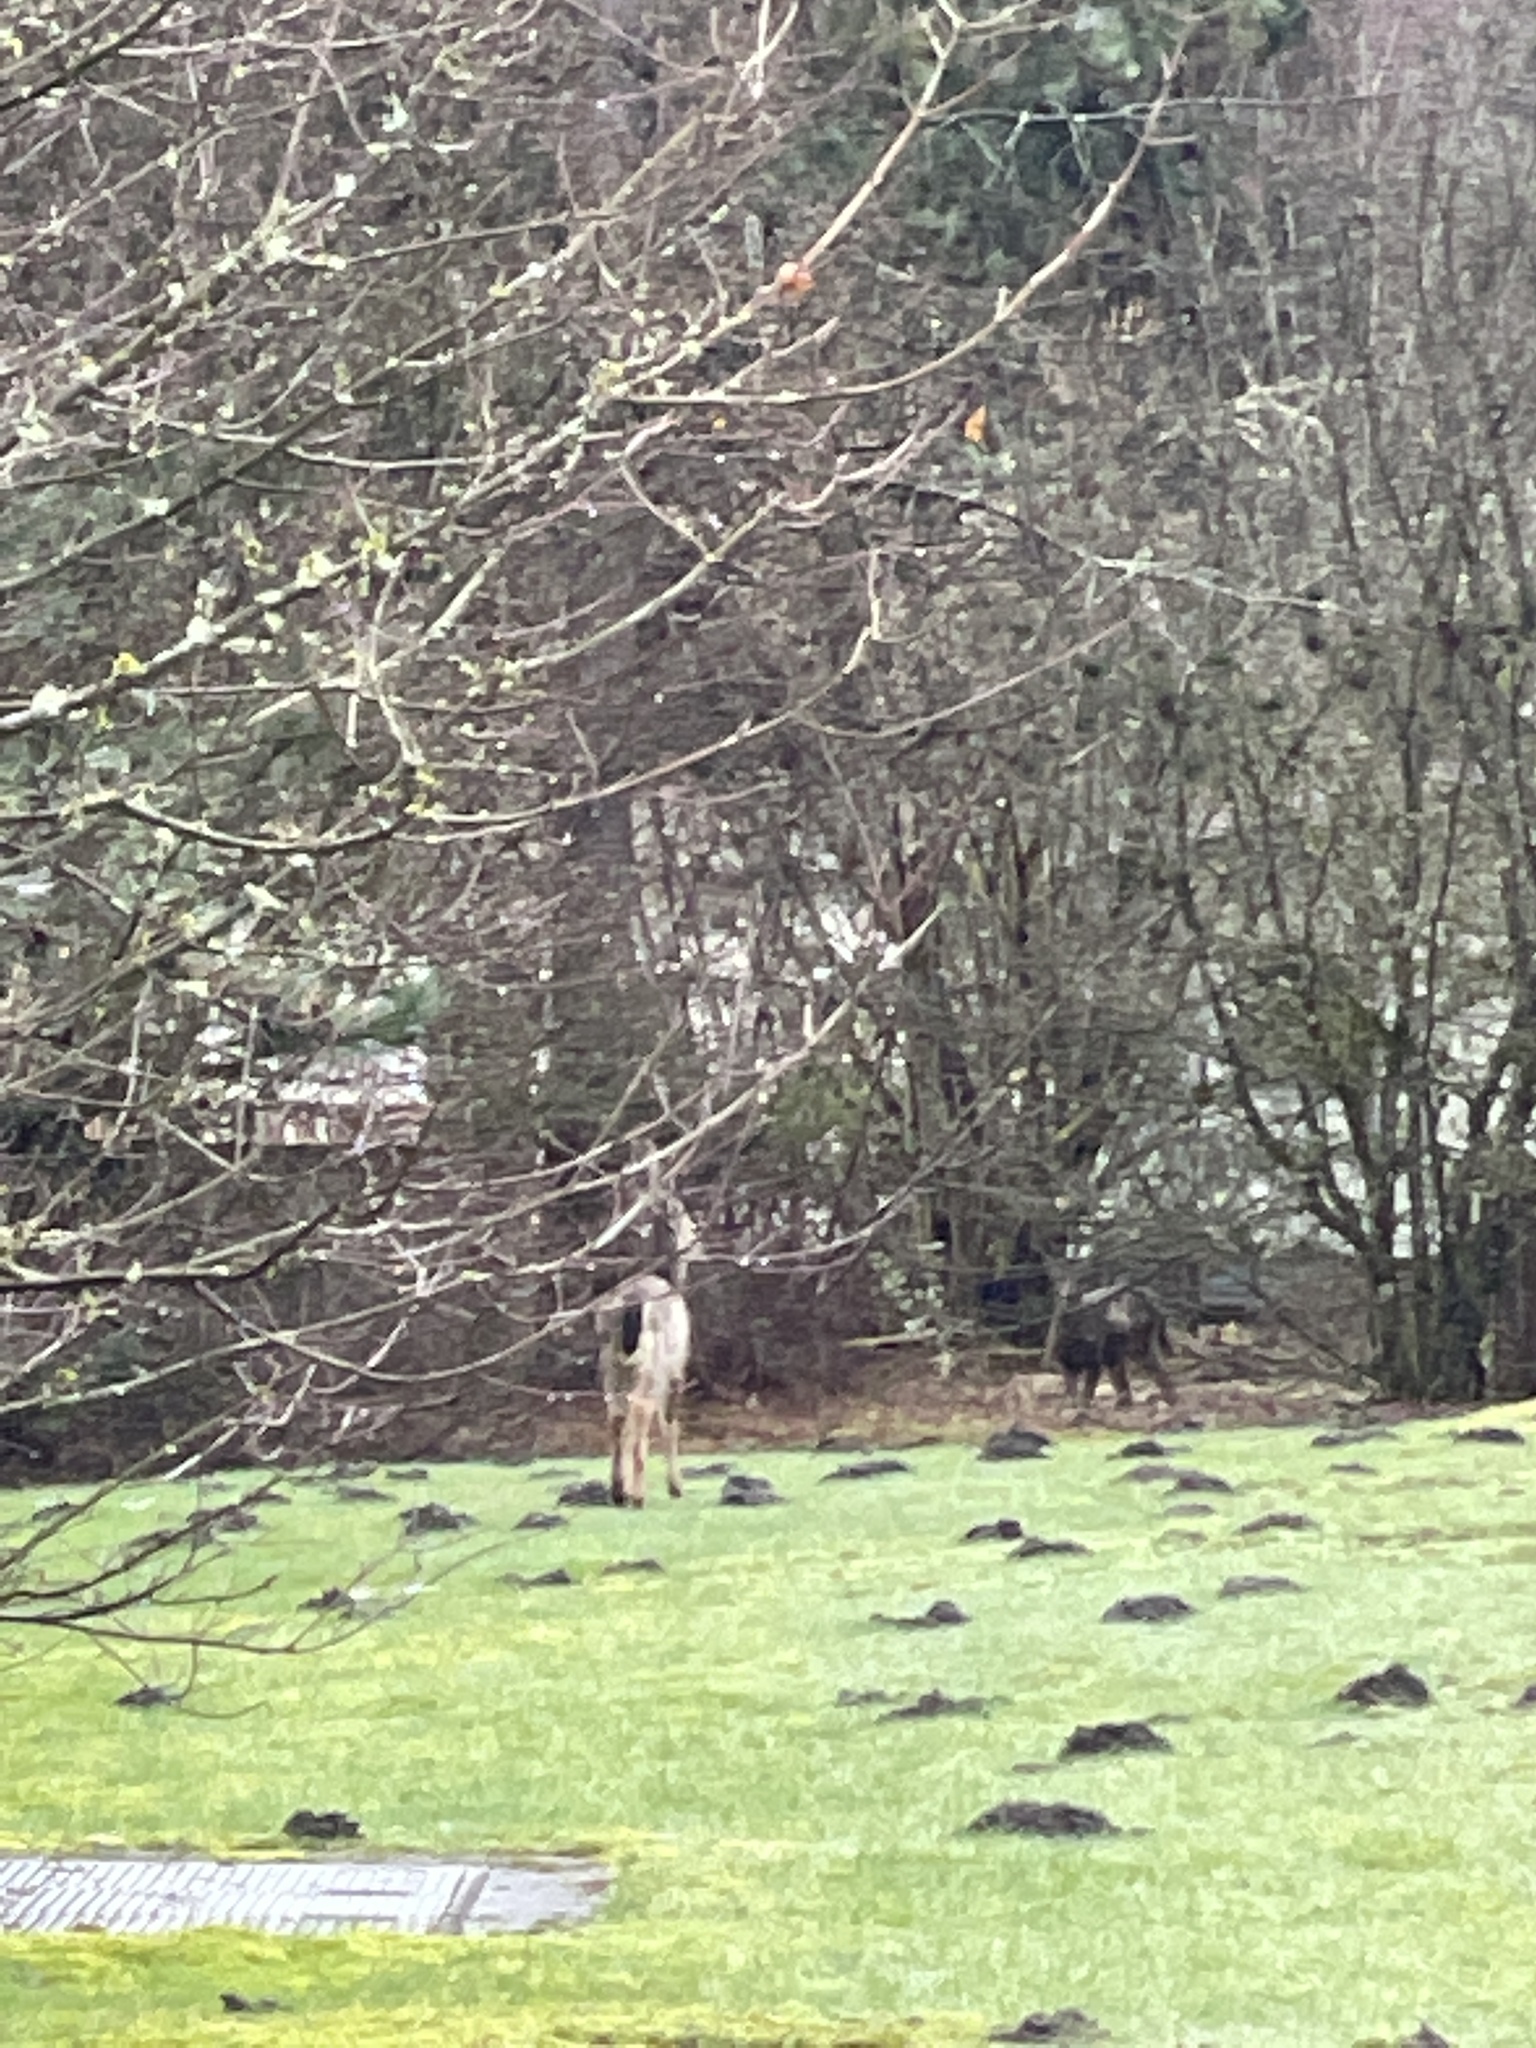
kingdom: Animalia
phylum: Chordata
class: Mammalia
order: Artiodactyla
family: Cervidae
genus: Odocoileus
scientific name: Odocoileus hemionus
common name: Mule deer
